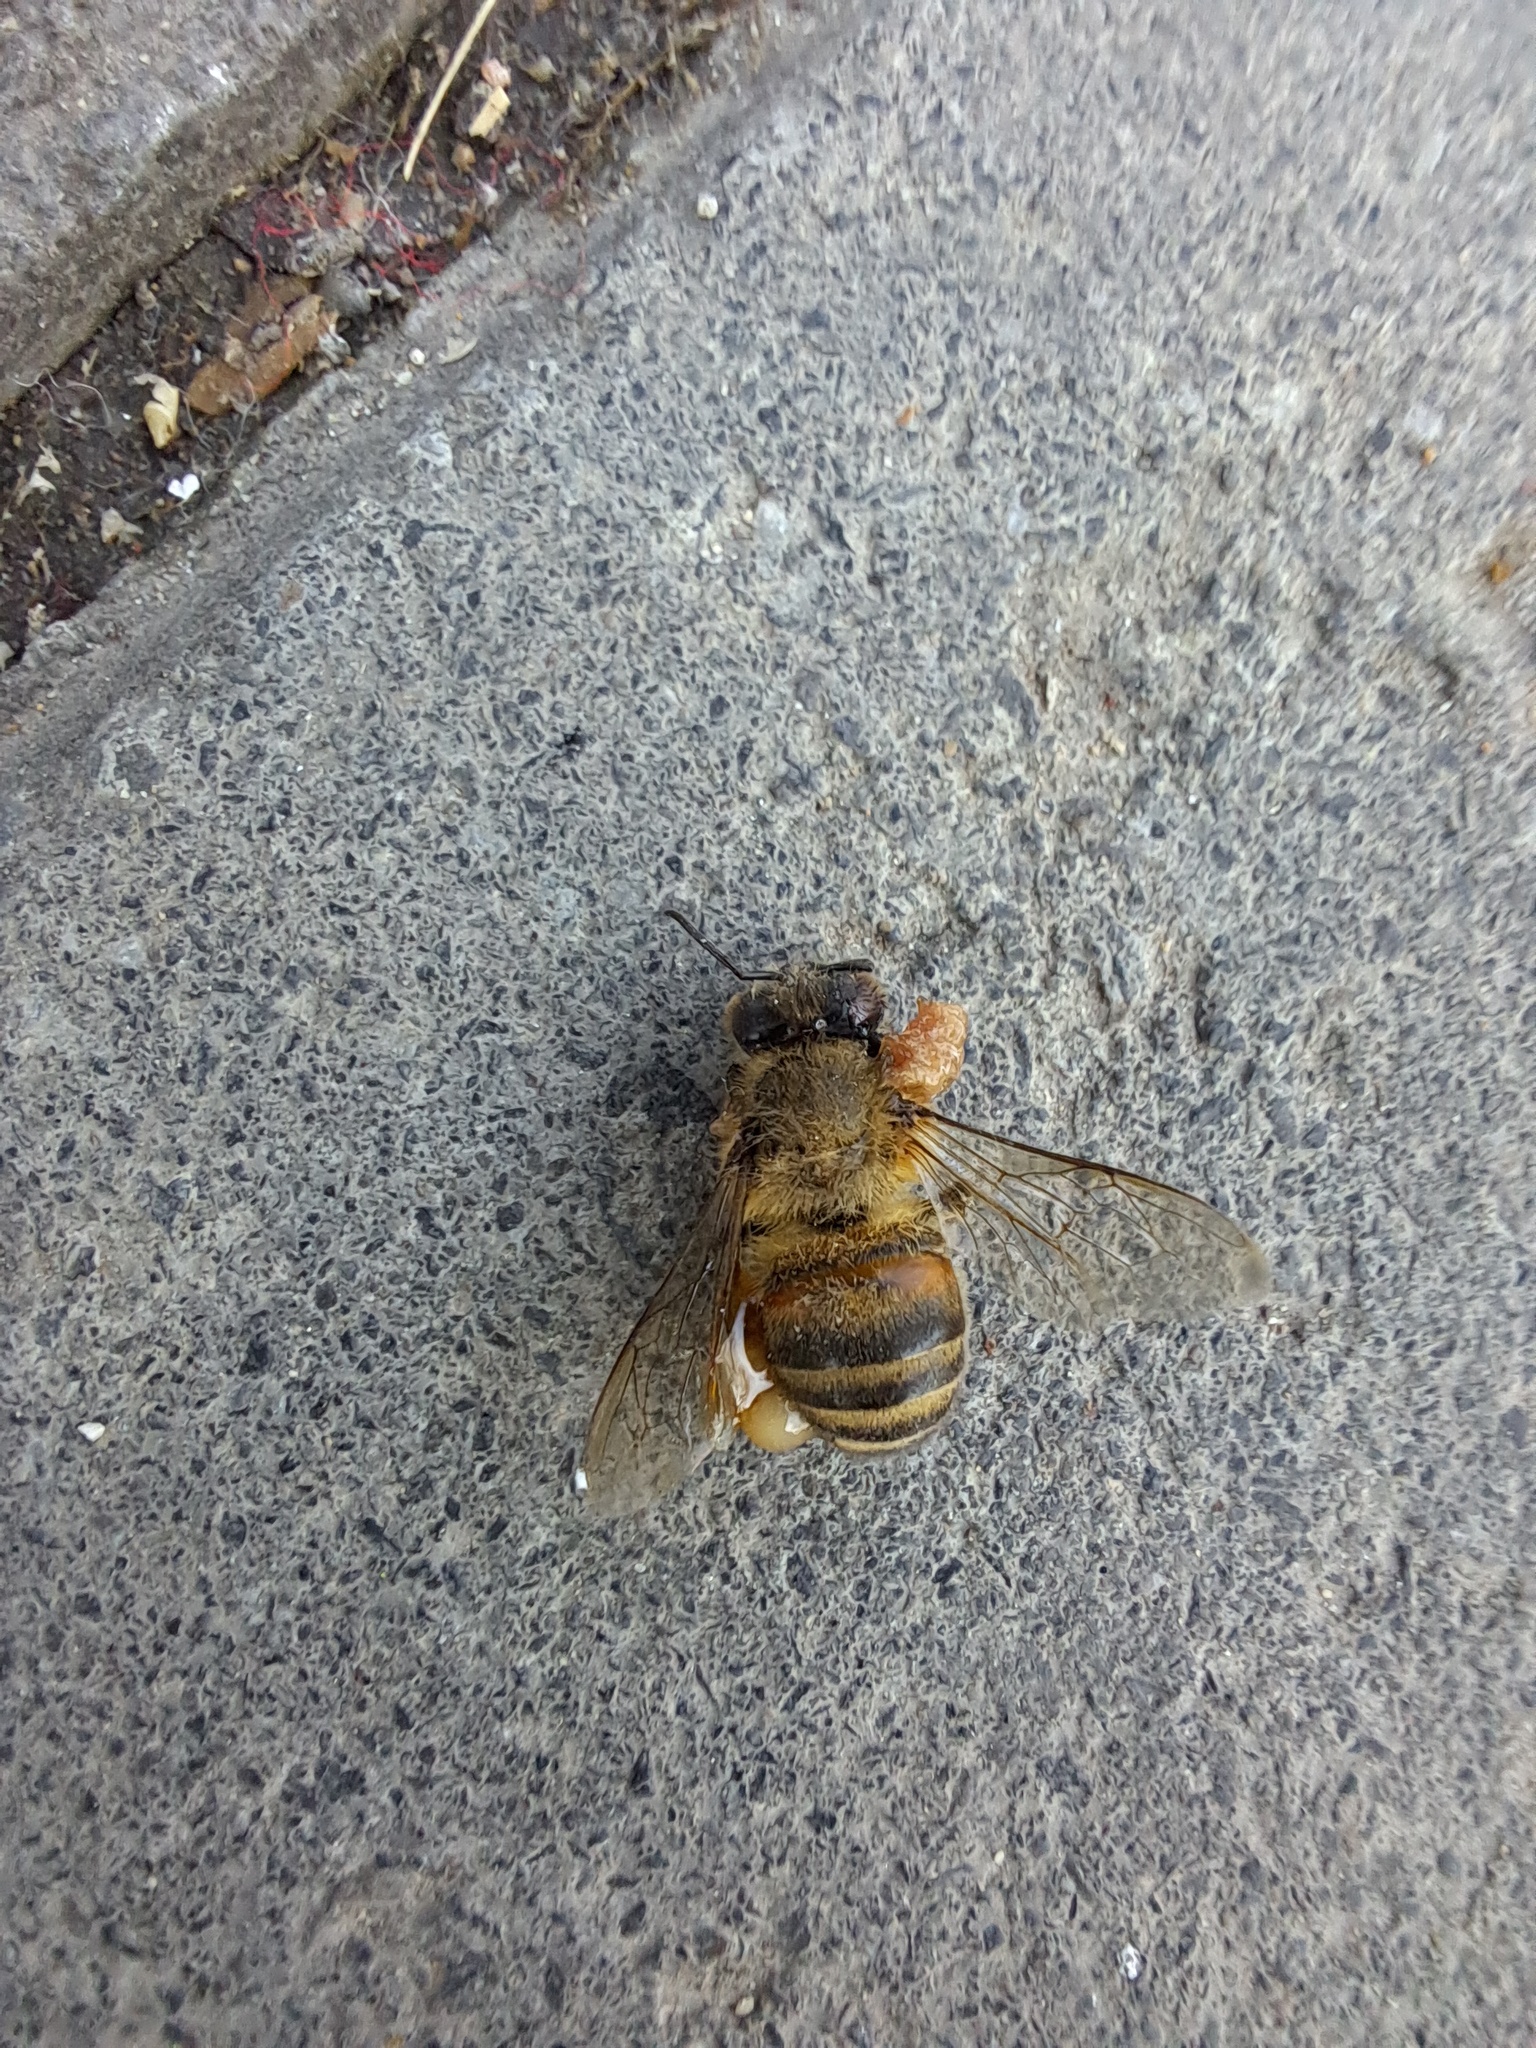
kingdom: Animalia
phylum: Arthropoda
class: Insecta
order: Hymenoptera
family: Apidae
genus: Apis
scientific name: Apis mellifera
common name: Honey bee
